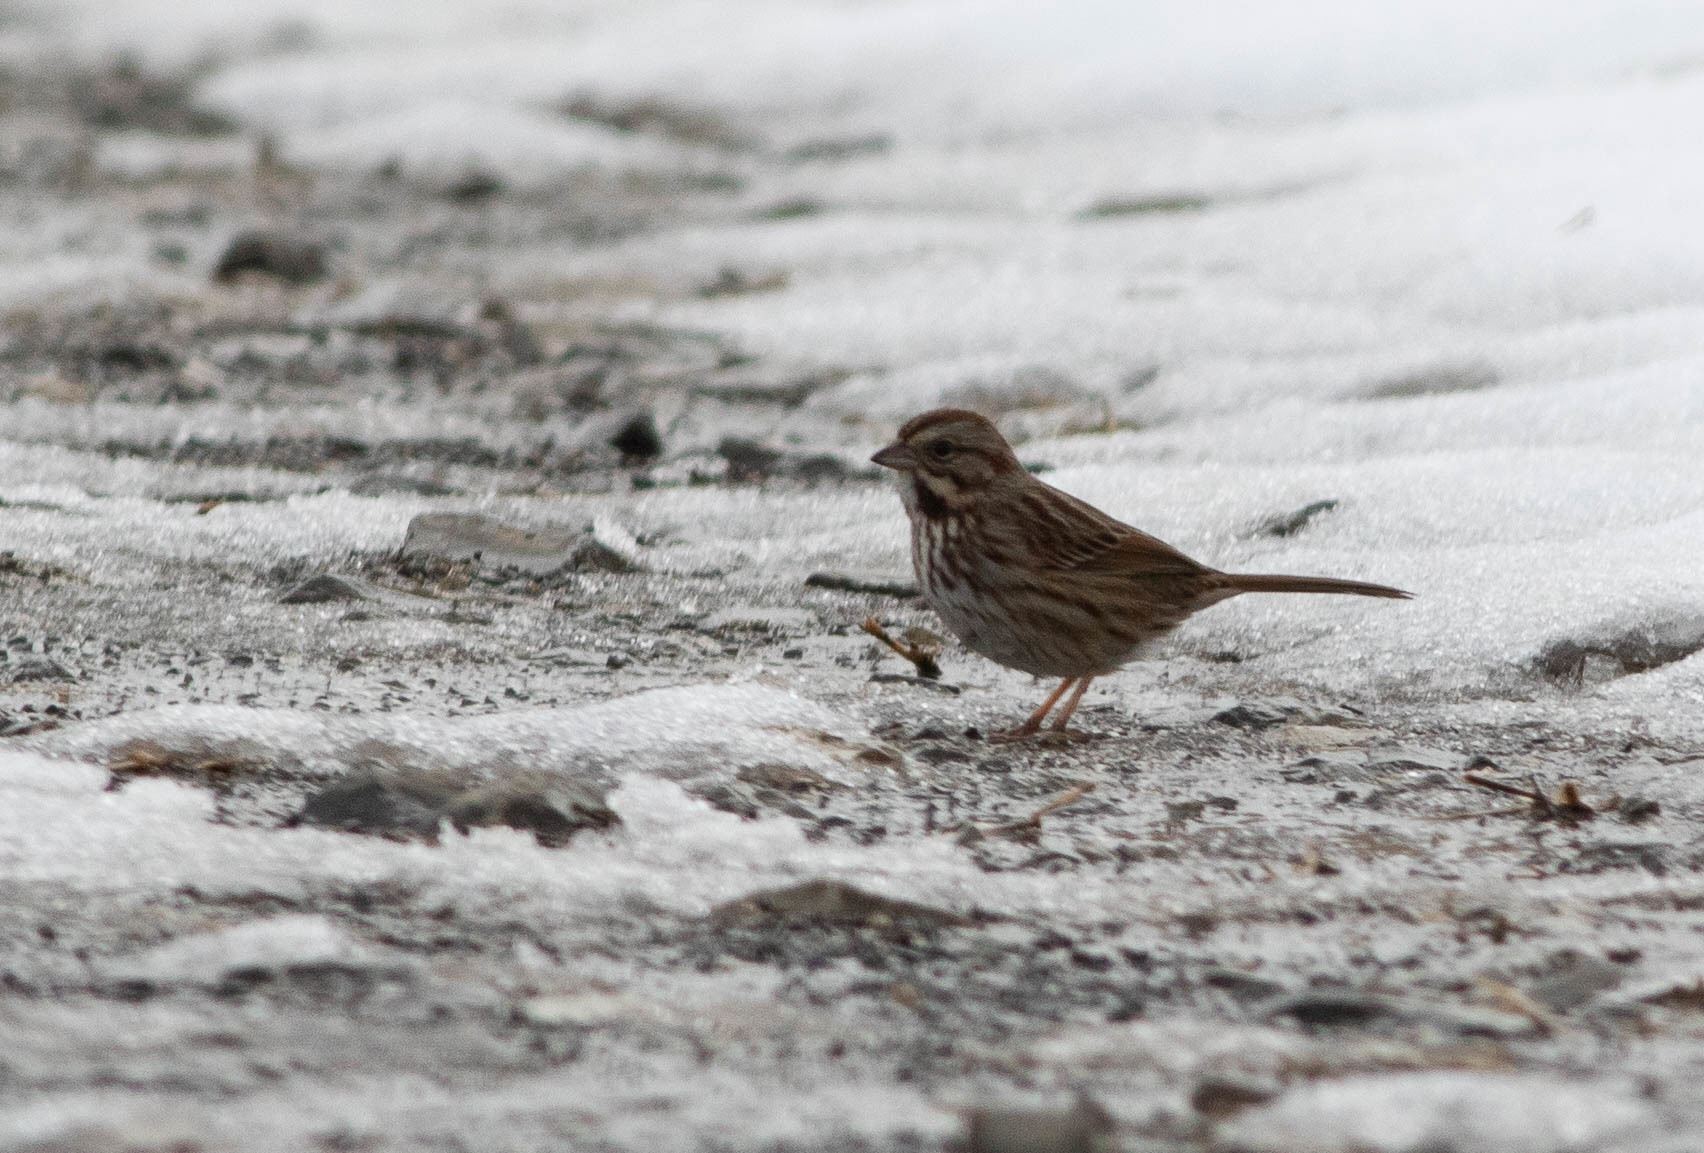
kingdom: Animalia
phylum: Chordata
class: Aves
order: Passeriformes
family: Passerellidae
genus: Melospiza
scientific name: Melospiza melodia
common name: Song sparrow
